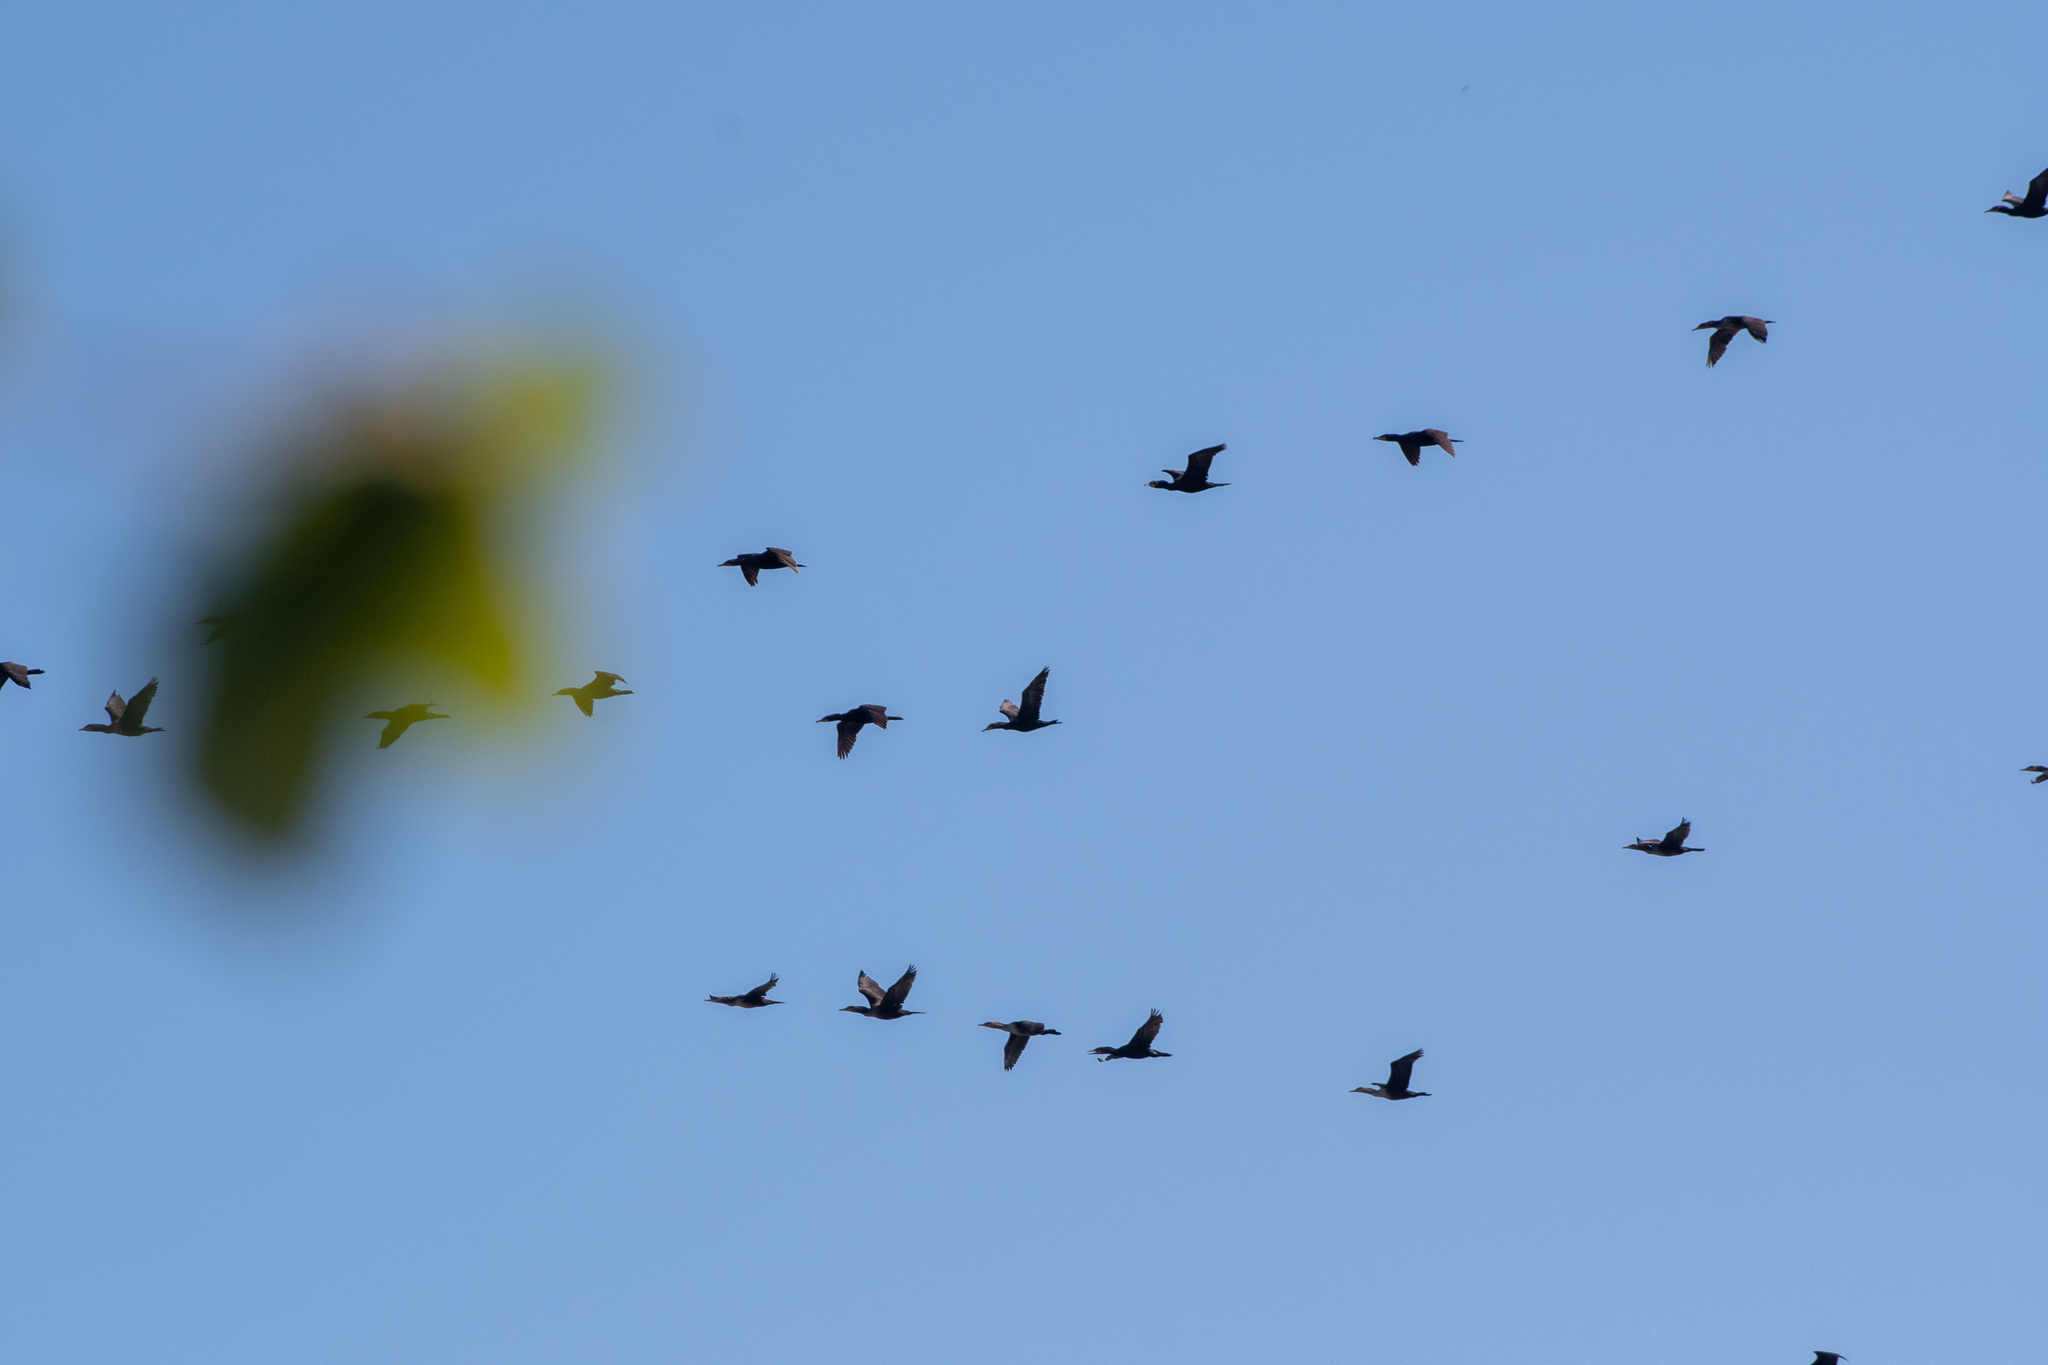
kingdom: Animalia
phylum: Chordata
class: Aves
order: Suliformes
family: Phalacrocoracidae
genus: Phalacrocorax
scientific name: Phalacrocorax auritus
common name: Double-crested cormorant
